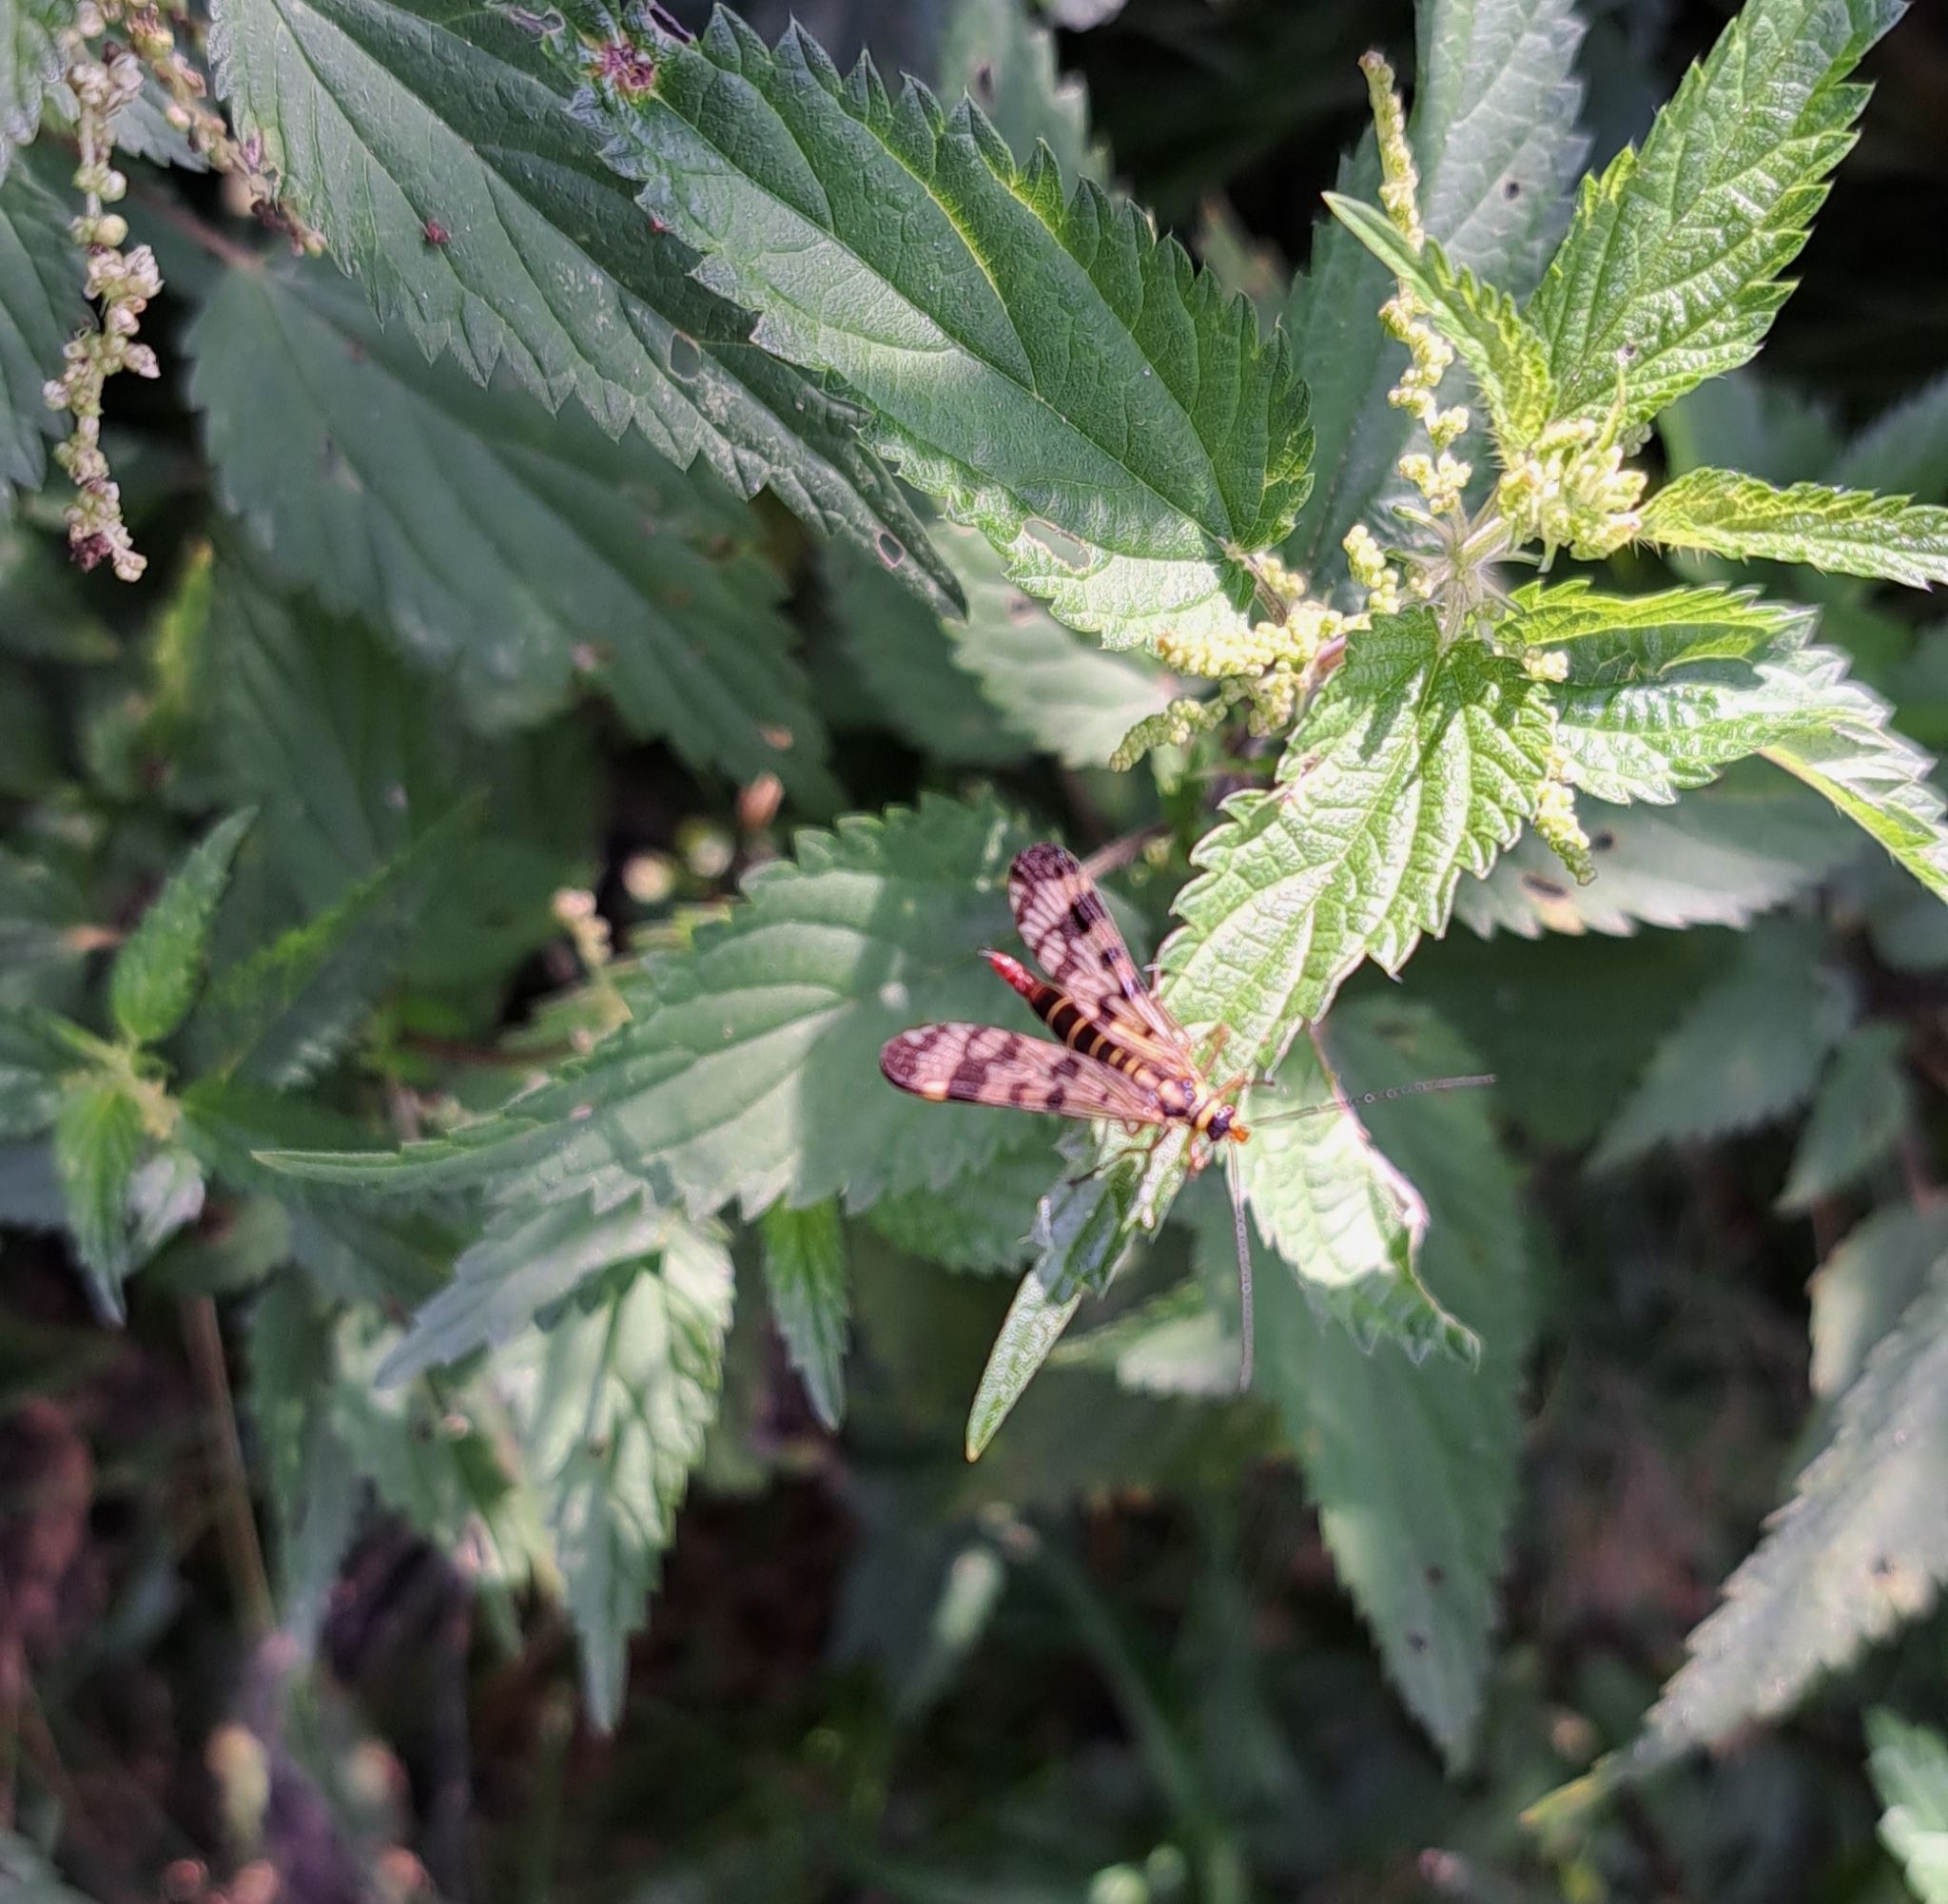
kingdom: Animalia
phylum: Arthropoda
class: Insecta
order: Mecoptera
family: Panorpidae
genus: Panorpa
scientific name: Panorpa communis
